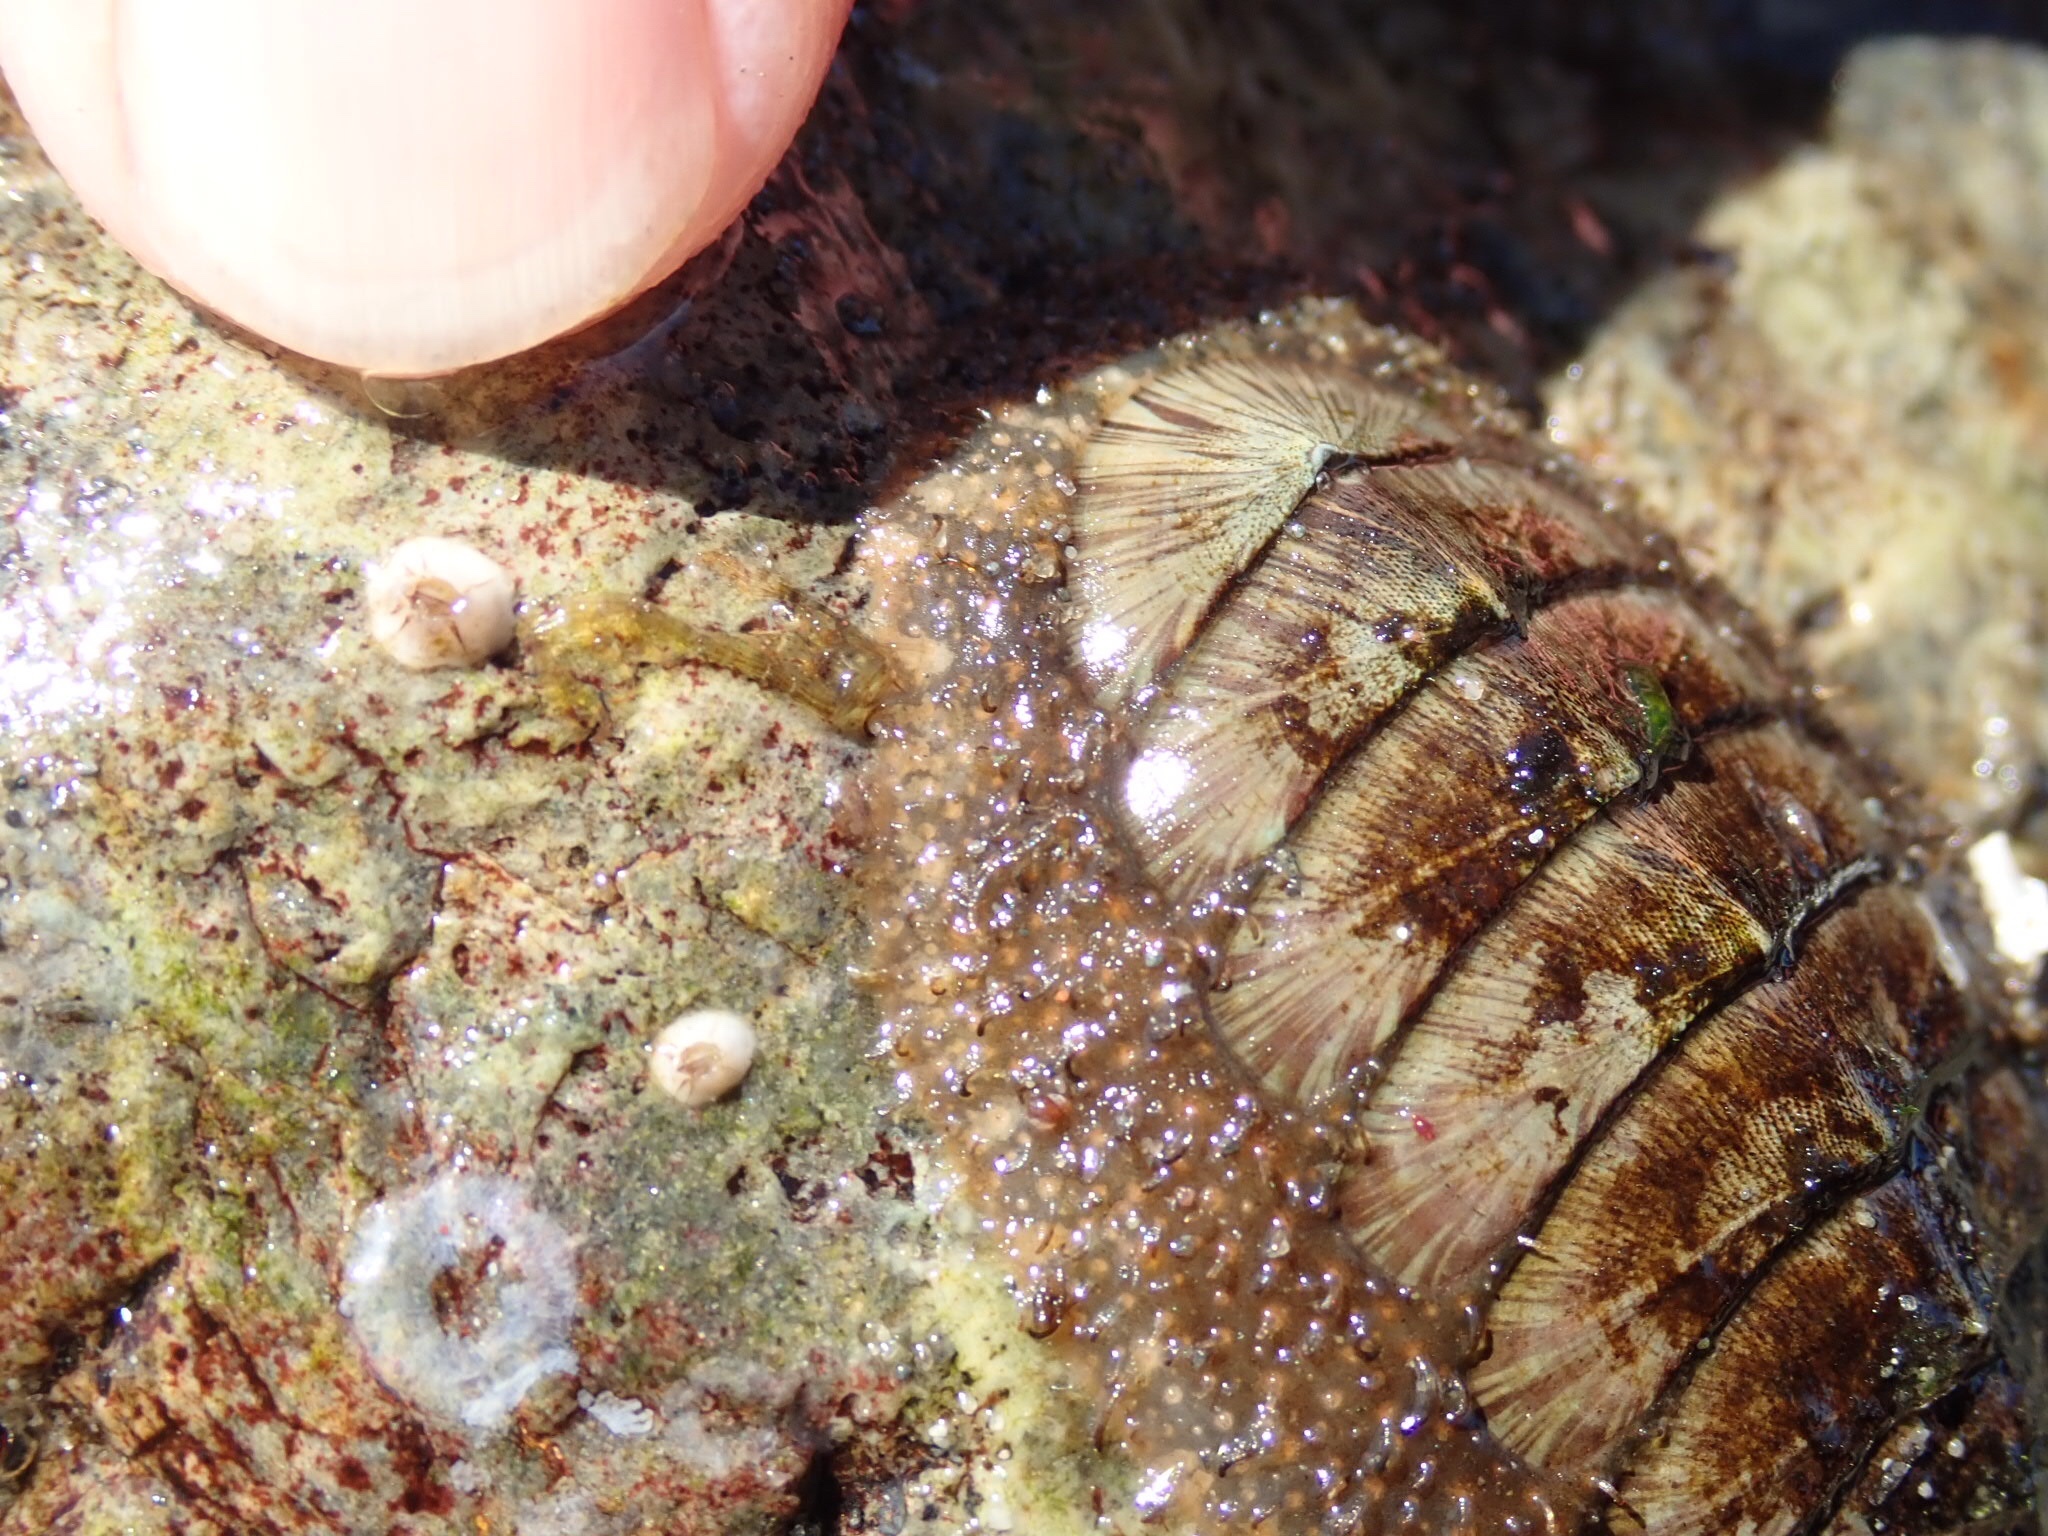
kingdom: Animalia
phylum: Mollusca
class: Polyplacophora
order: Chitonida
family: Mopaliidae
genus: Mopalia
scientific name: Mopalia lignosa
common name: Woody chiton
